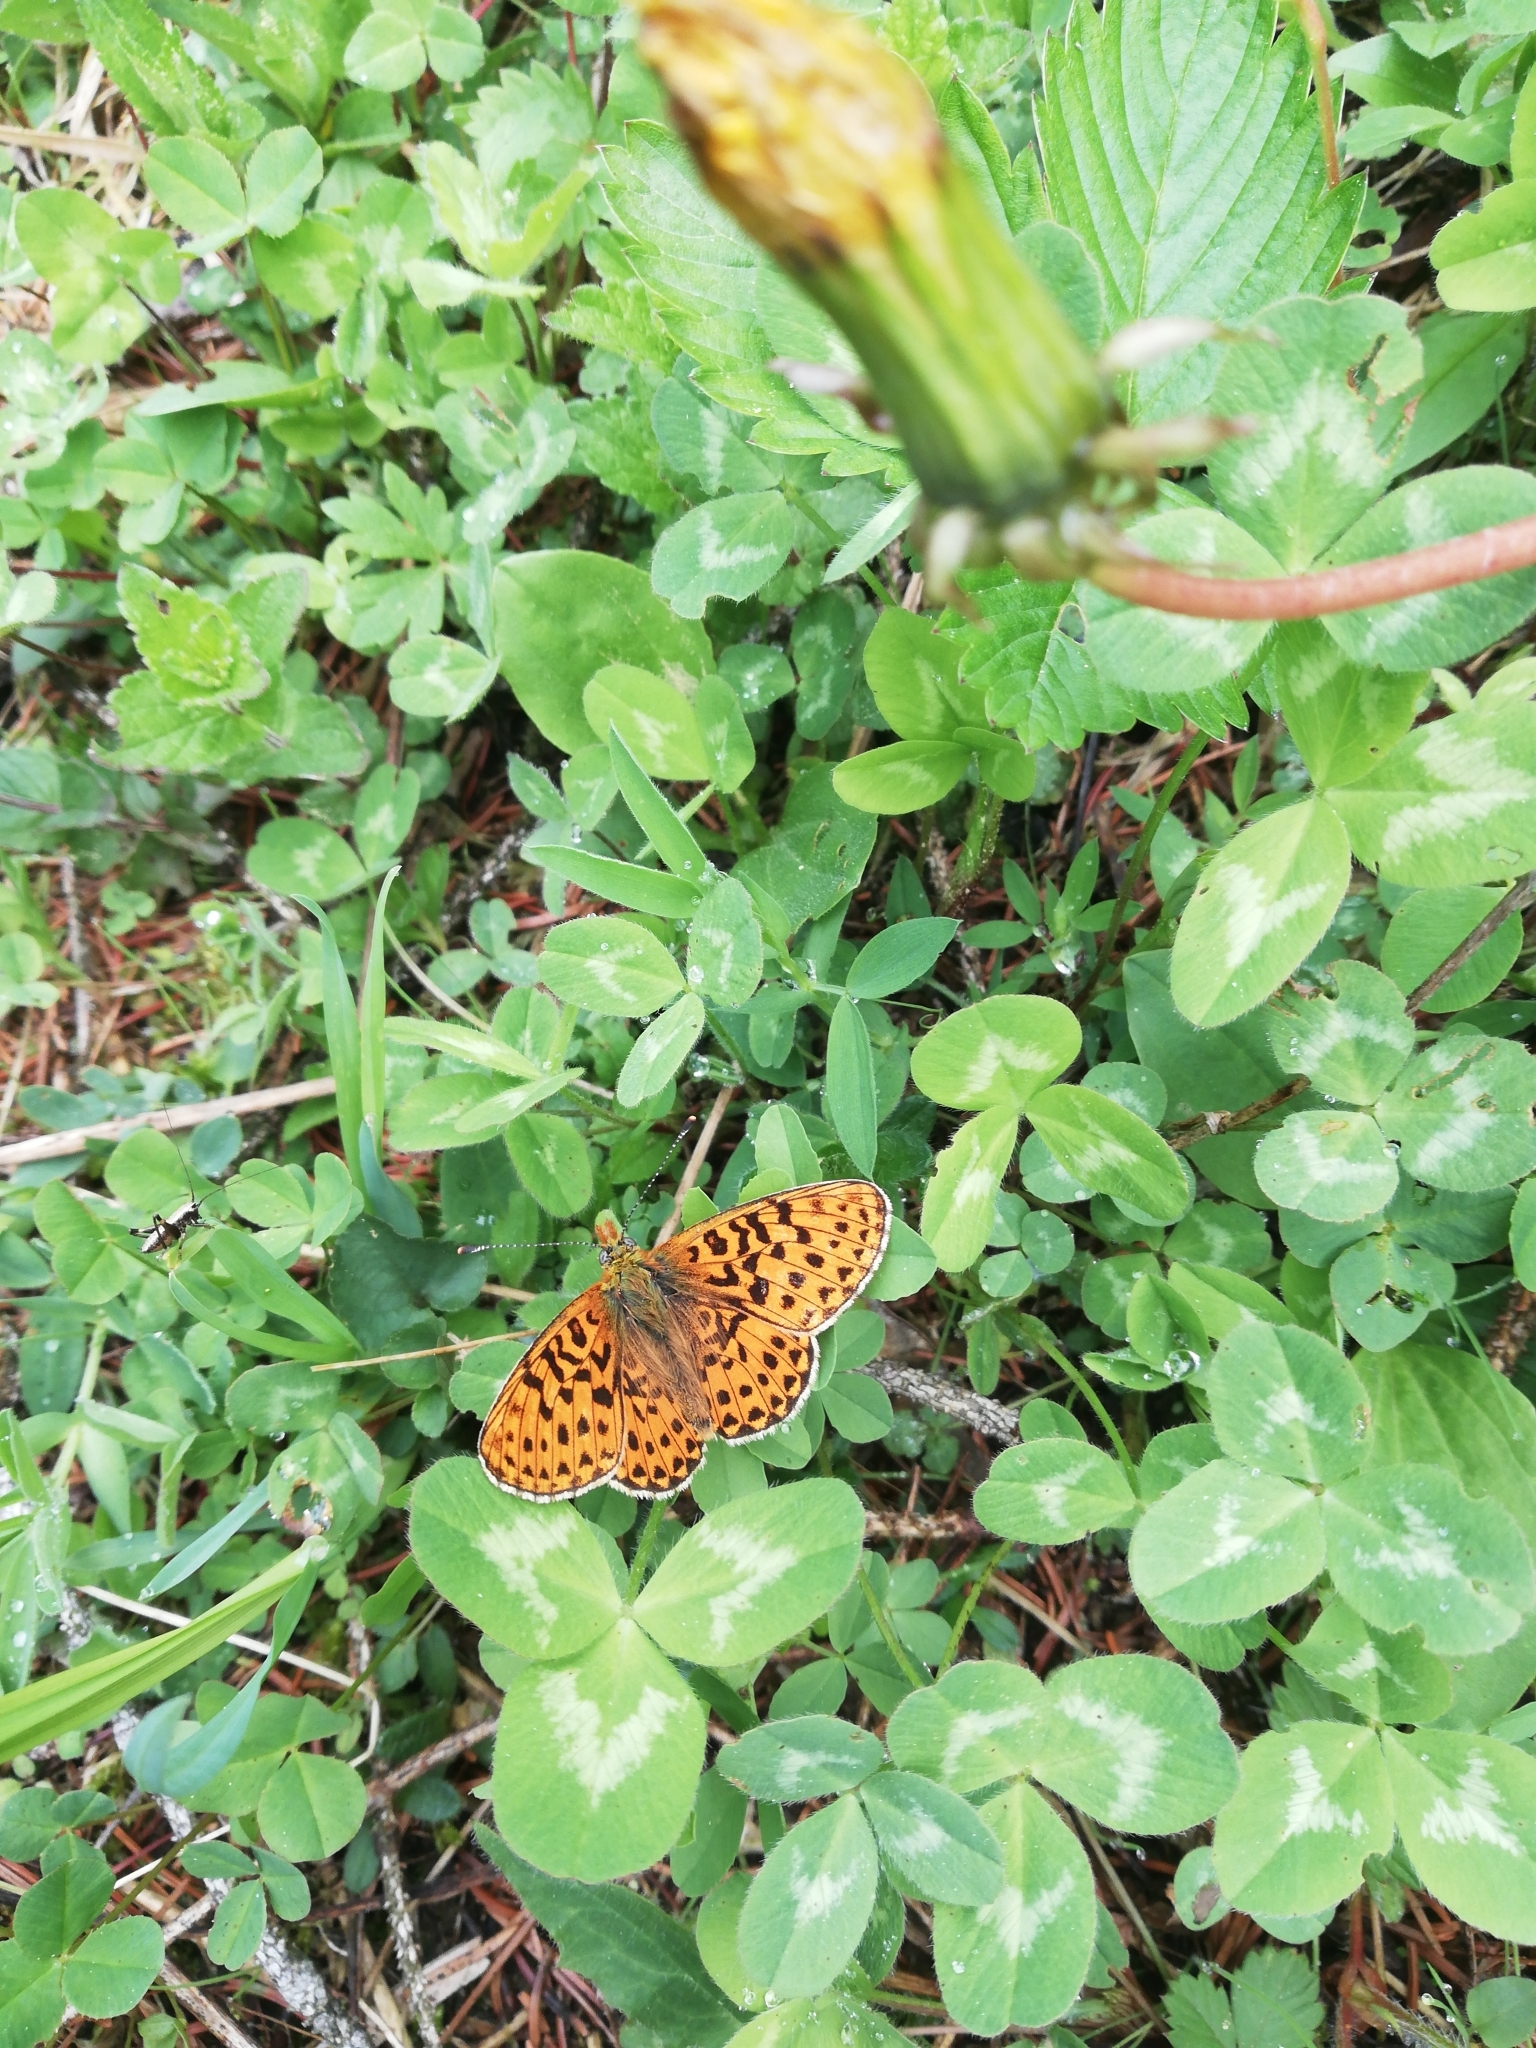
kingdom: Animalia
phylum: Arthropoda
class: Insecta
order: Lepidoptera
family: Nymphalidae
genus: Clossiana
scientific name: Clossiana euphrosyne
